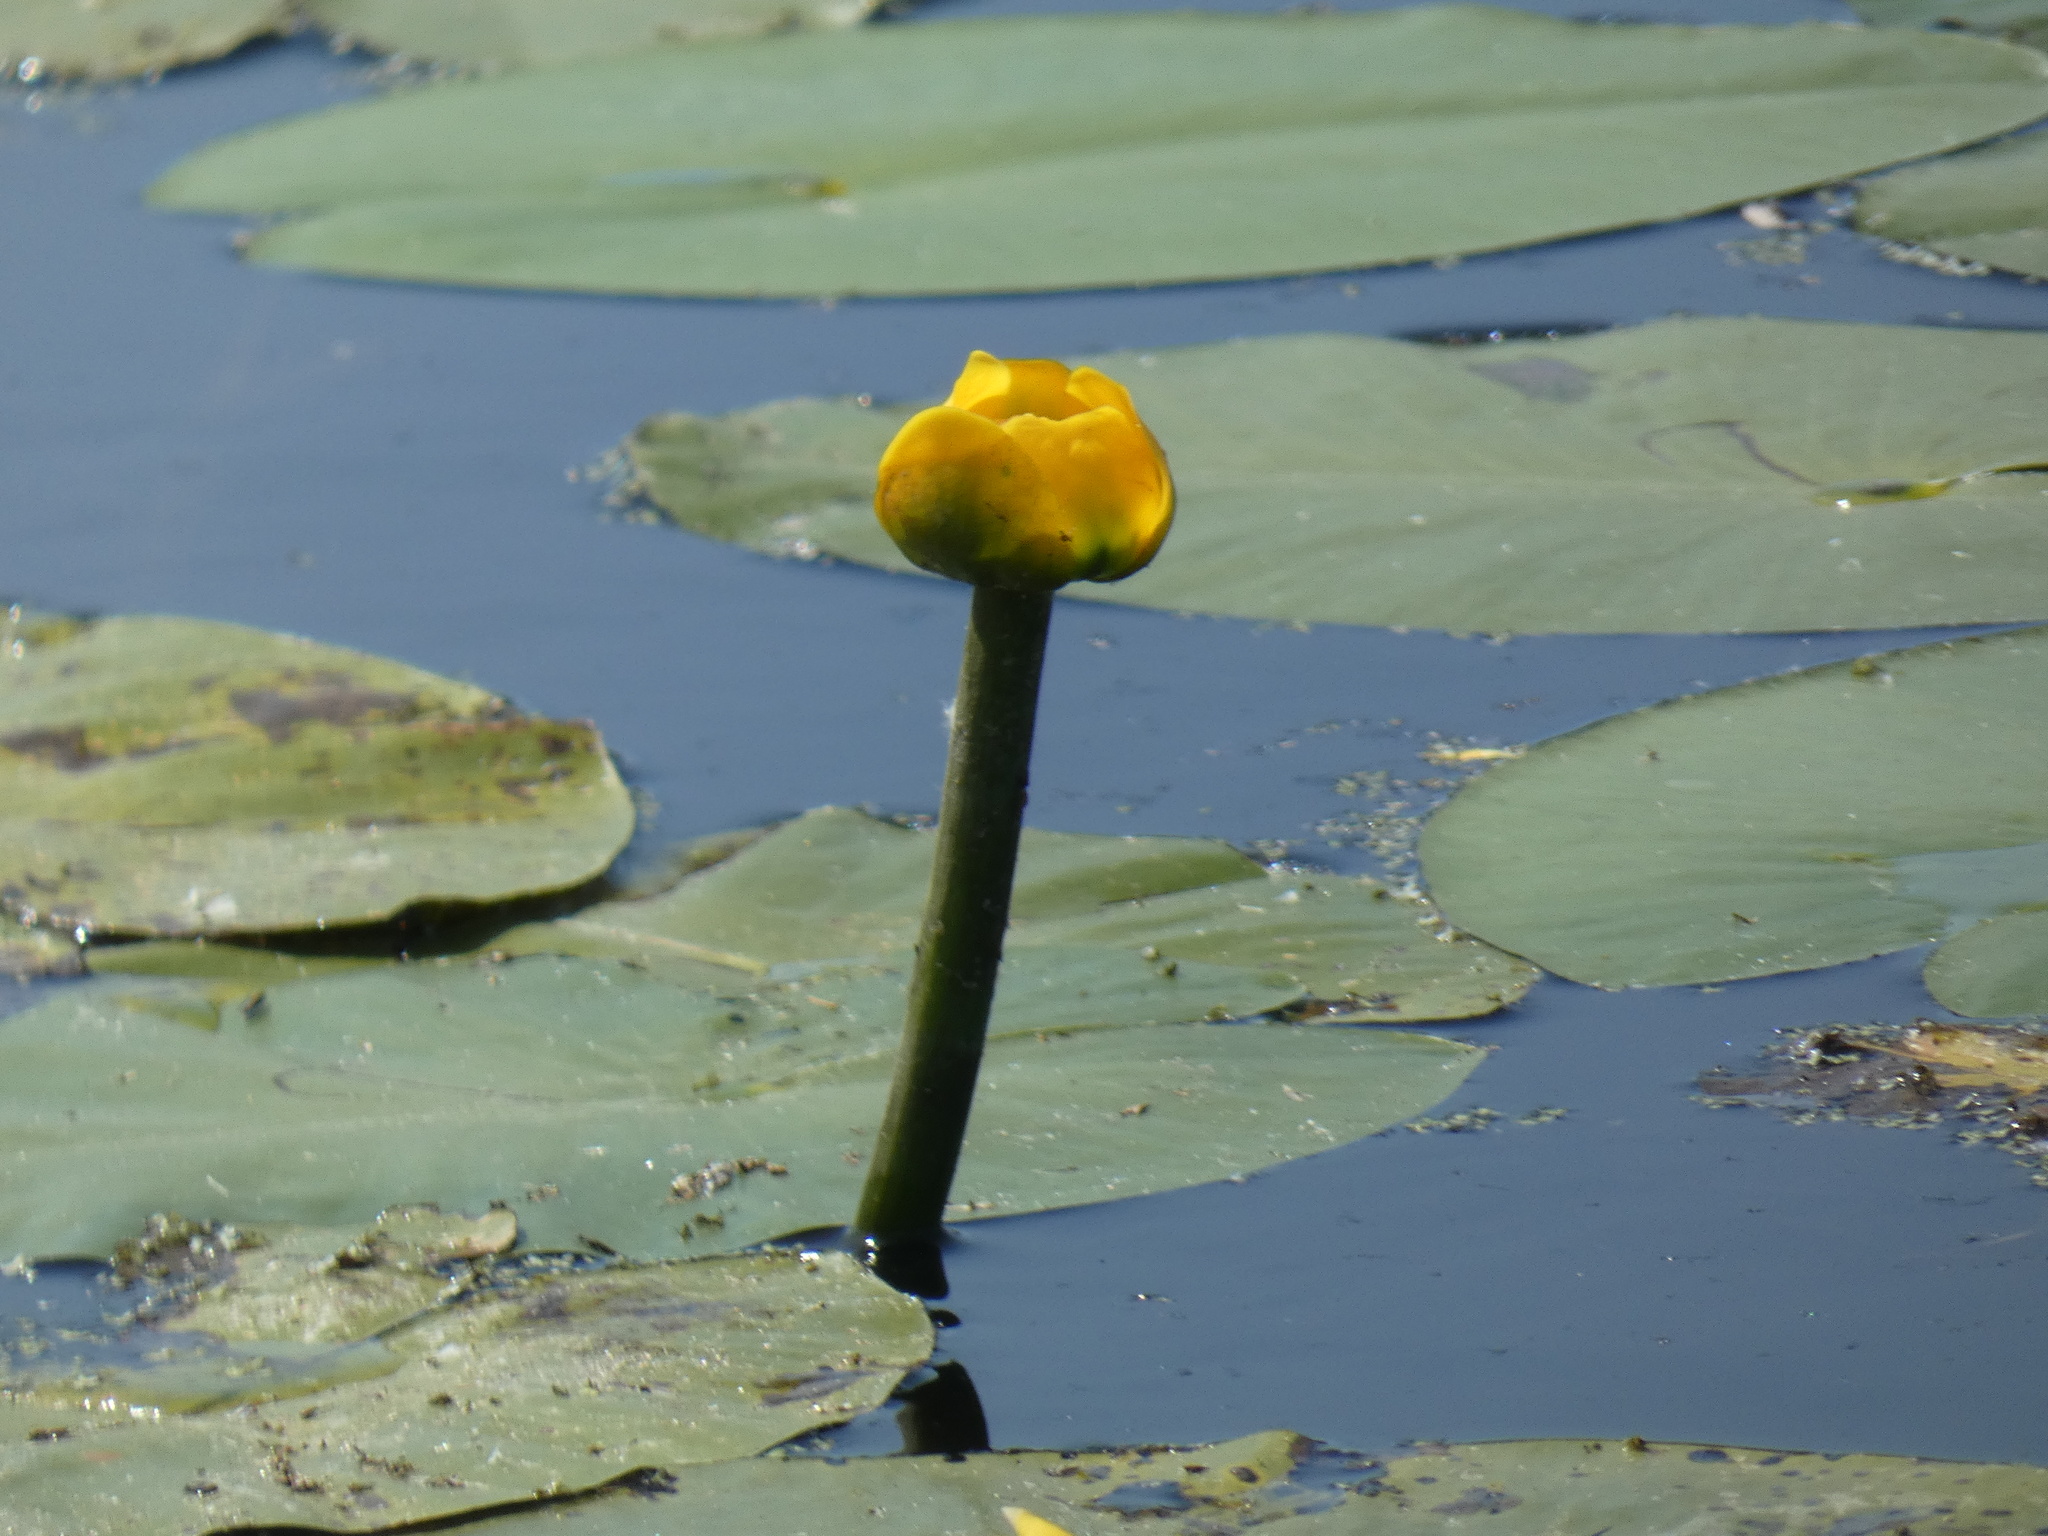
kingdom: Plantae
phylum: Tracheophyta
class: Magnoliopsida
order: Nymphaeales
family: Nymphaeaceae
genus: Nuphar
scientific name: Nuphar lutea
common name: Yellow water-lily
